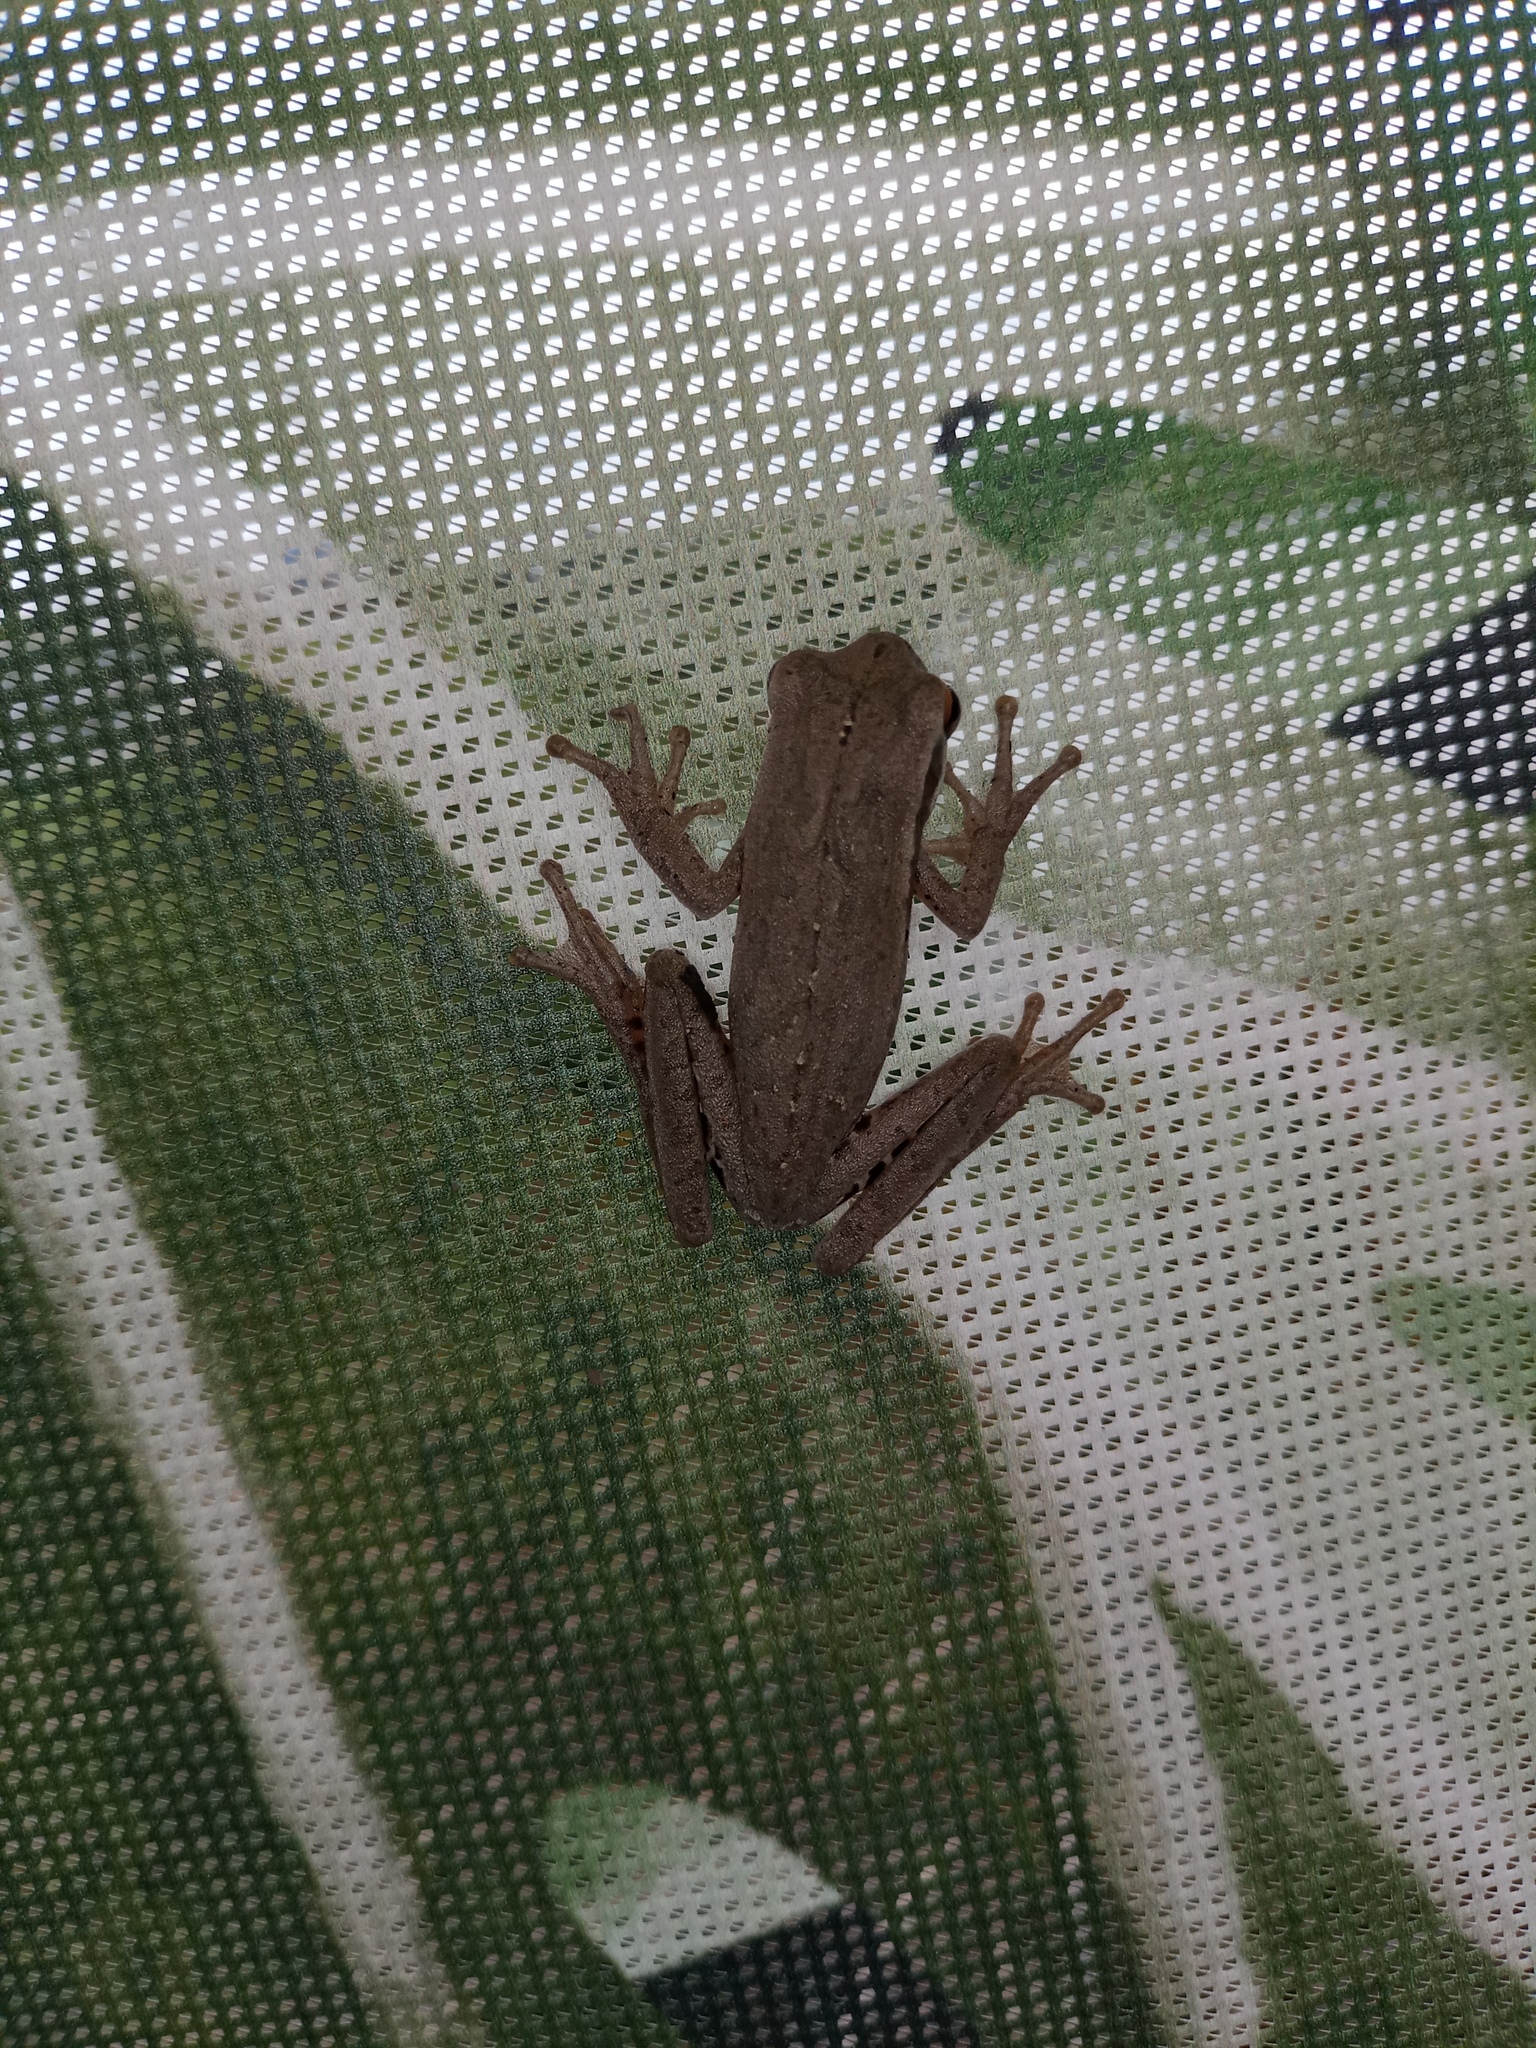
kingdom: Animalia
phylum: Chordata
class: Amphibia
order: Anura
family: Hylidae
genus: Boana
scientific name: Boana pulchella
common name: Montevideo treefrog
